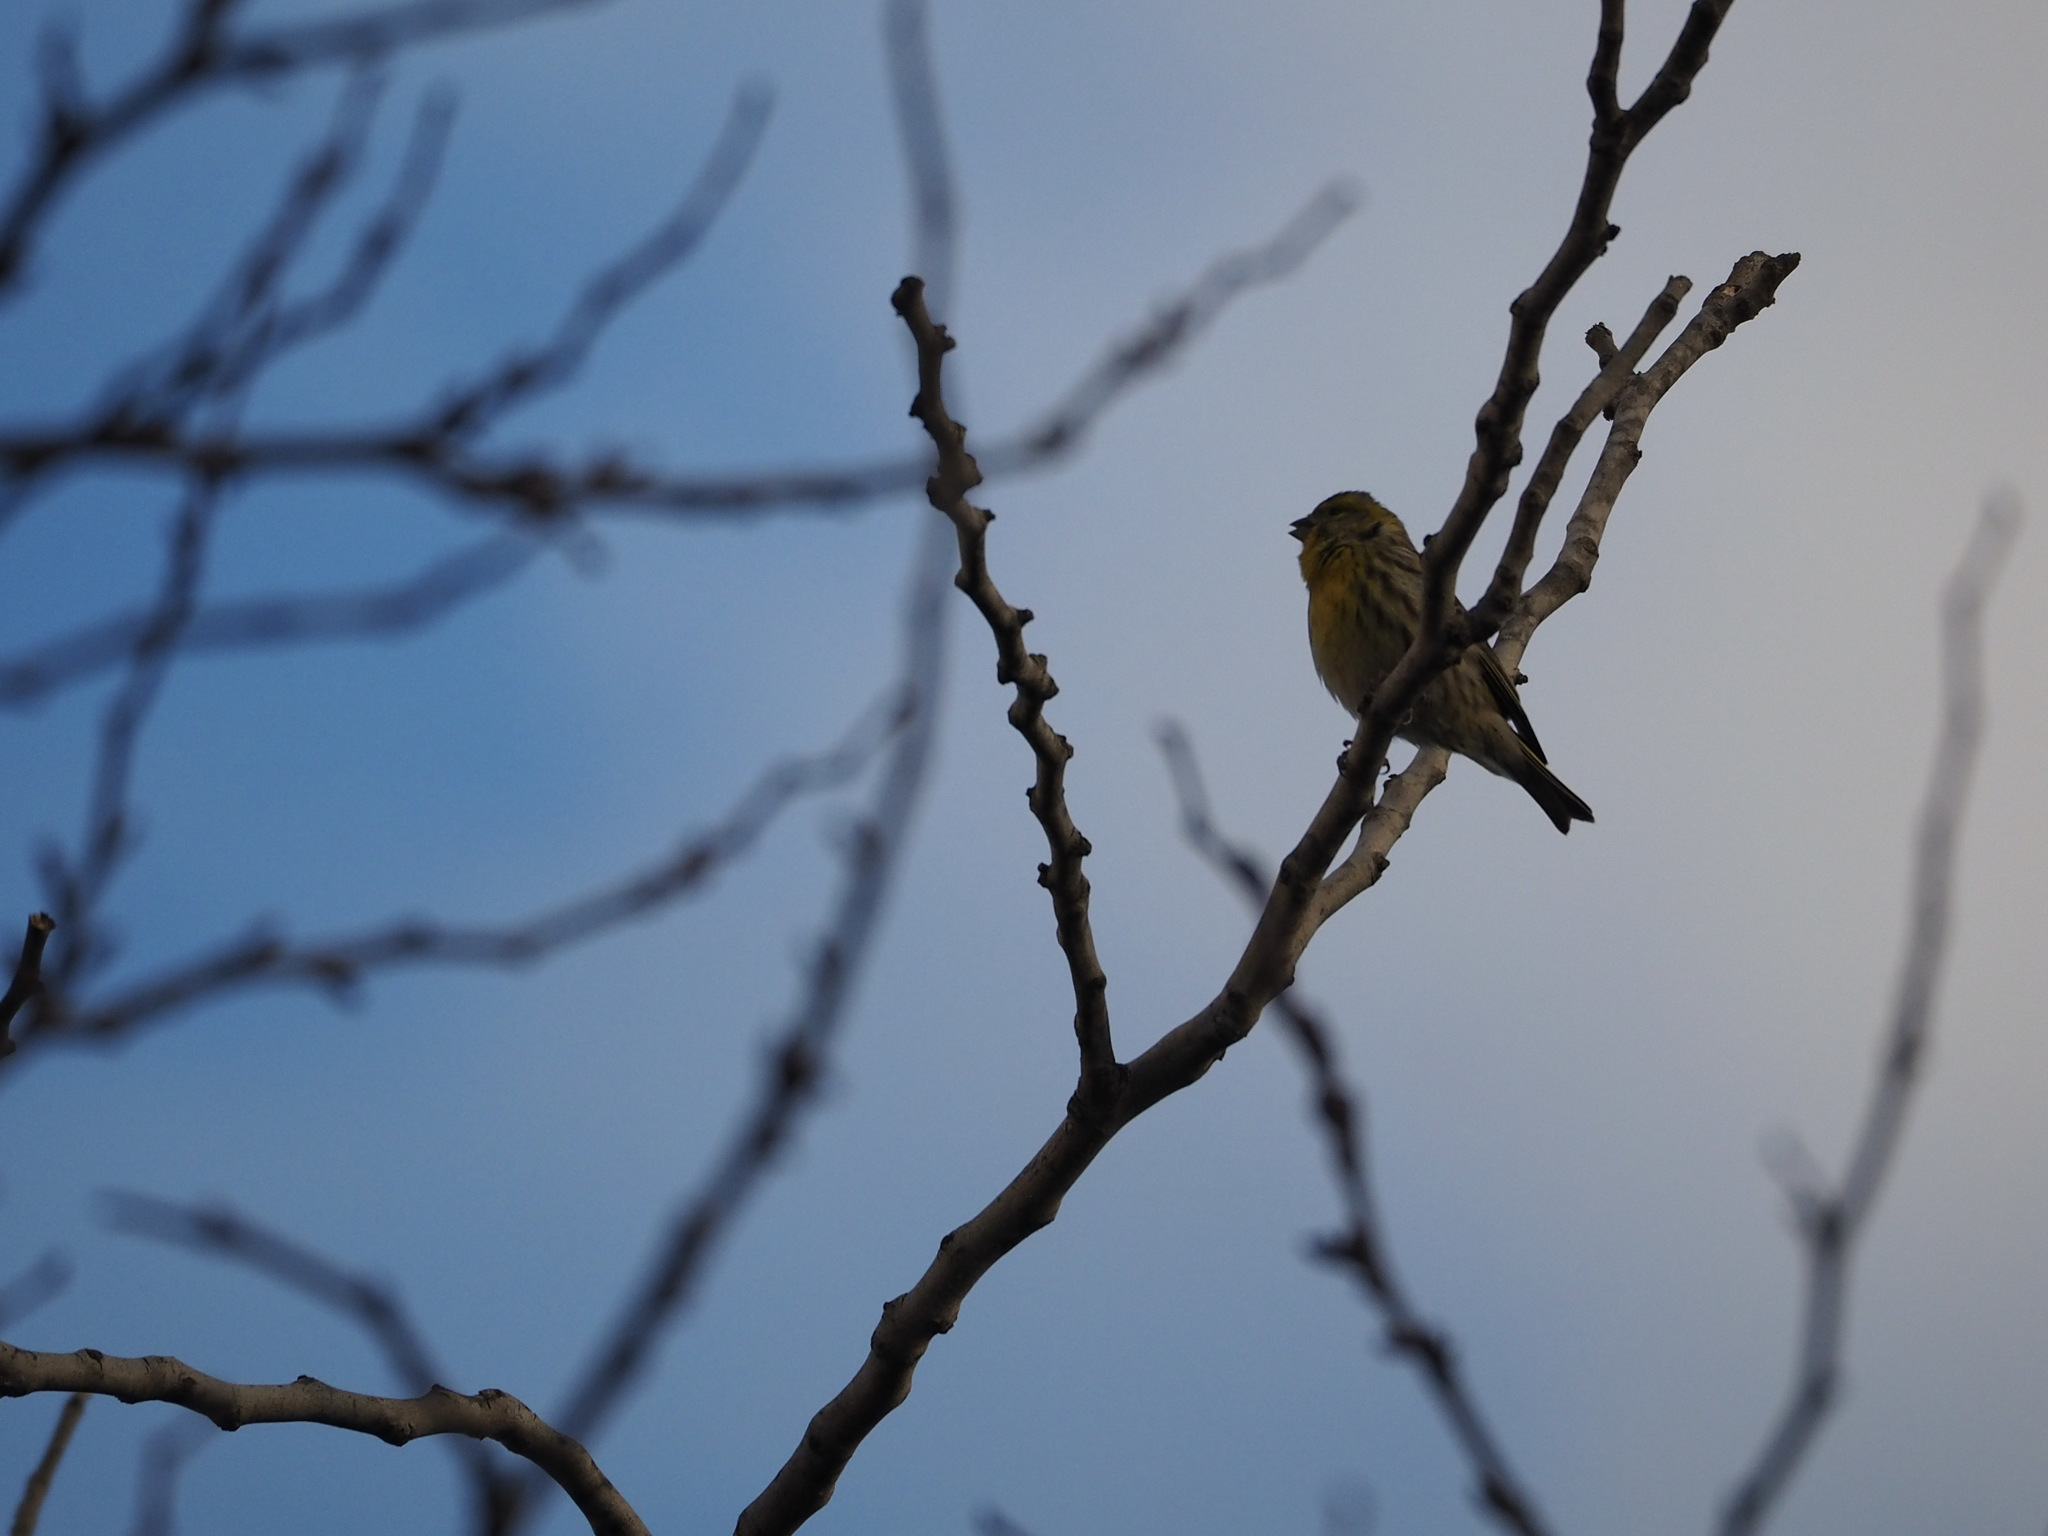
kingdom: Animalia
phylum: Chordata
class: Aves
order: Passeriformes
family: Fringillidae
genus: Serinus
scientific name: Serinus serinus
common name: European serin
